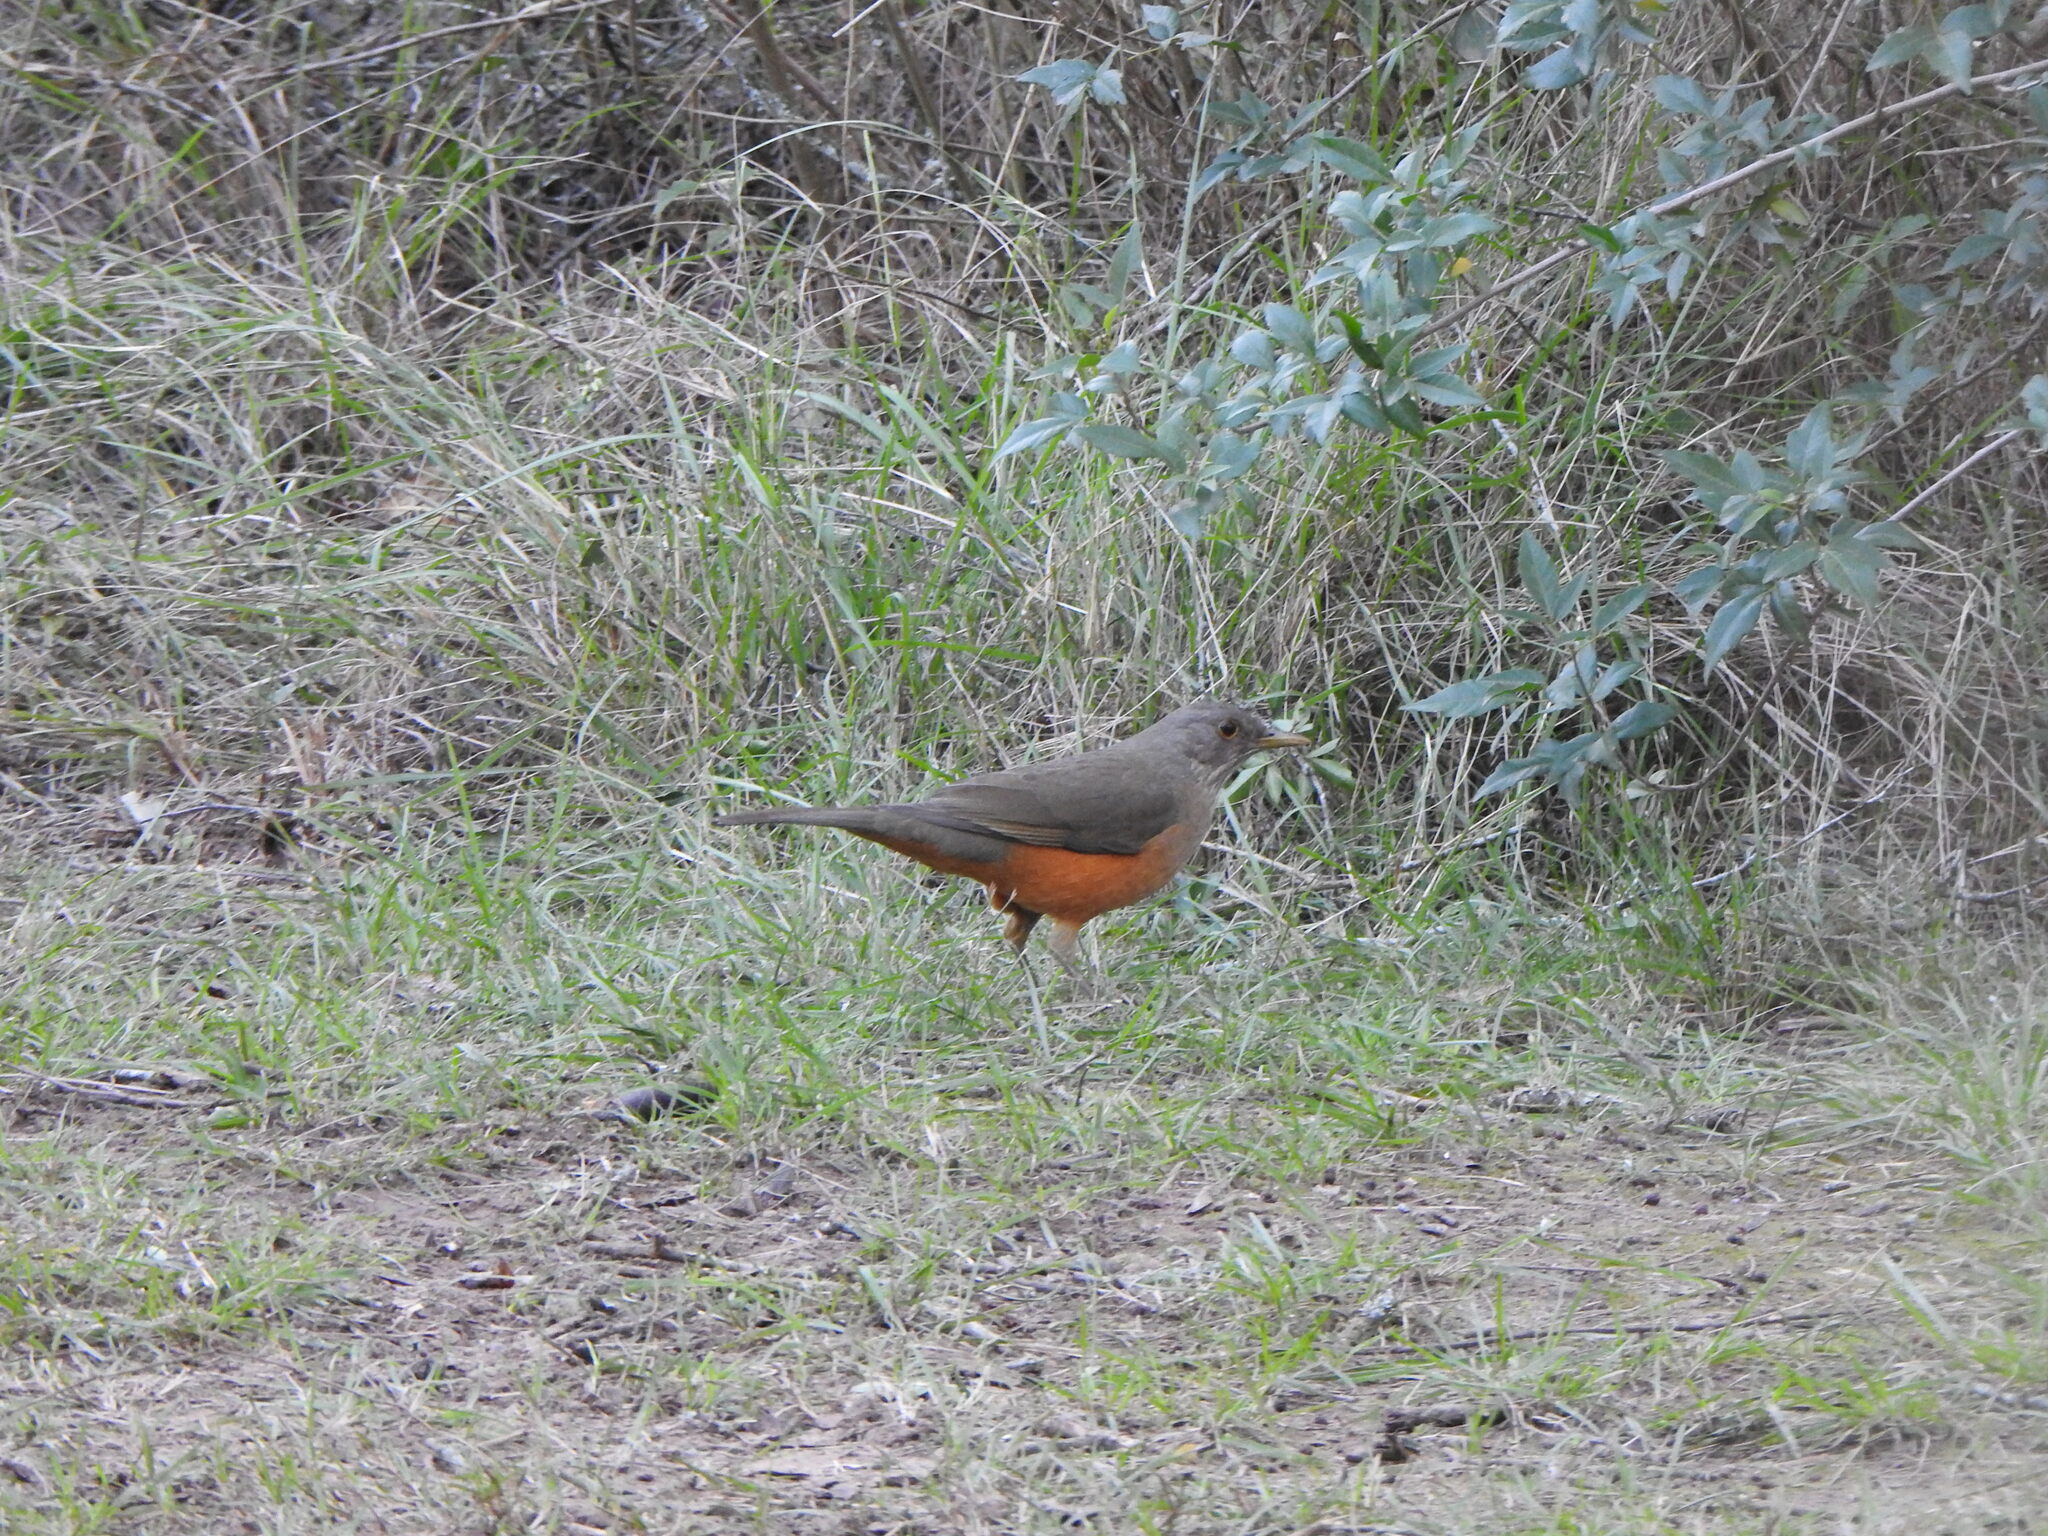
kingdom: Animalia
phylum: Chordata
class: Aves
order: Passeriformes
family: Turdidae
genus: Turdus
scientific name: Turdus rufiventris
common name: Rufous-bellied thrush
